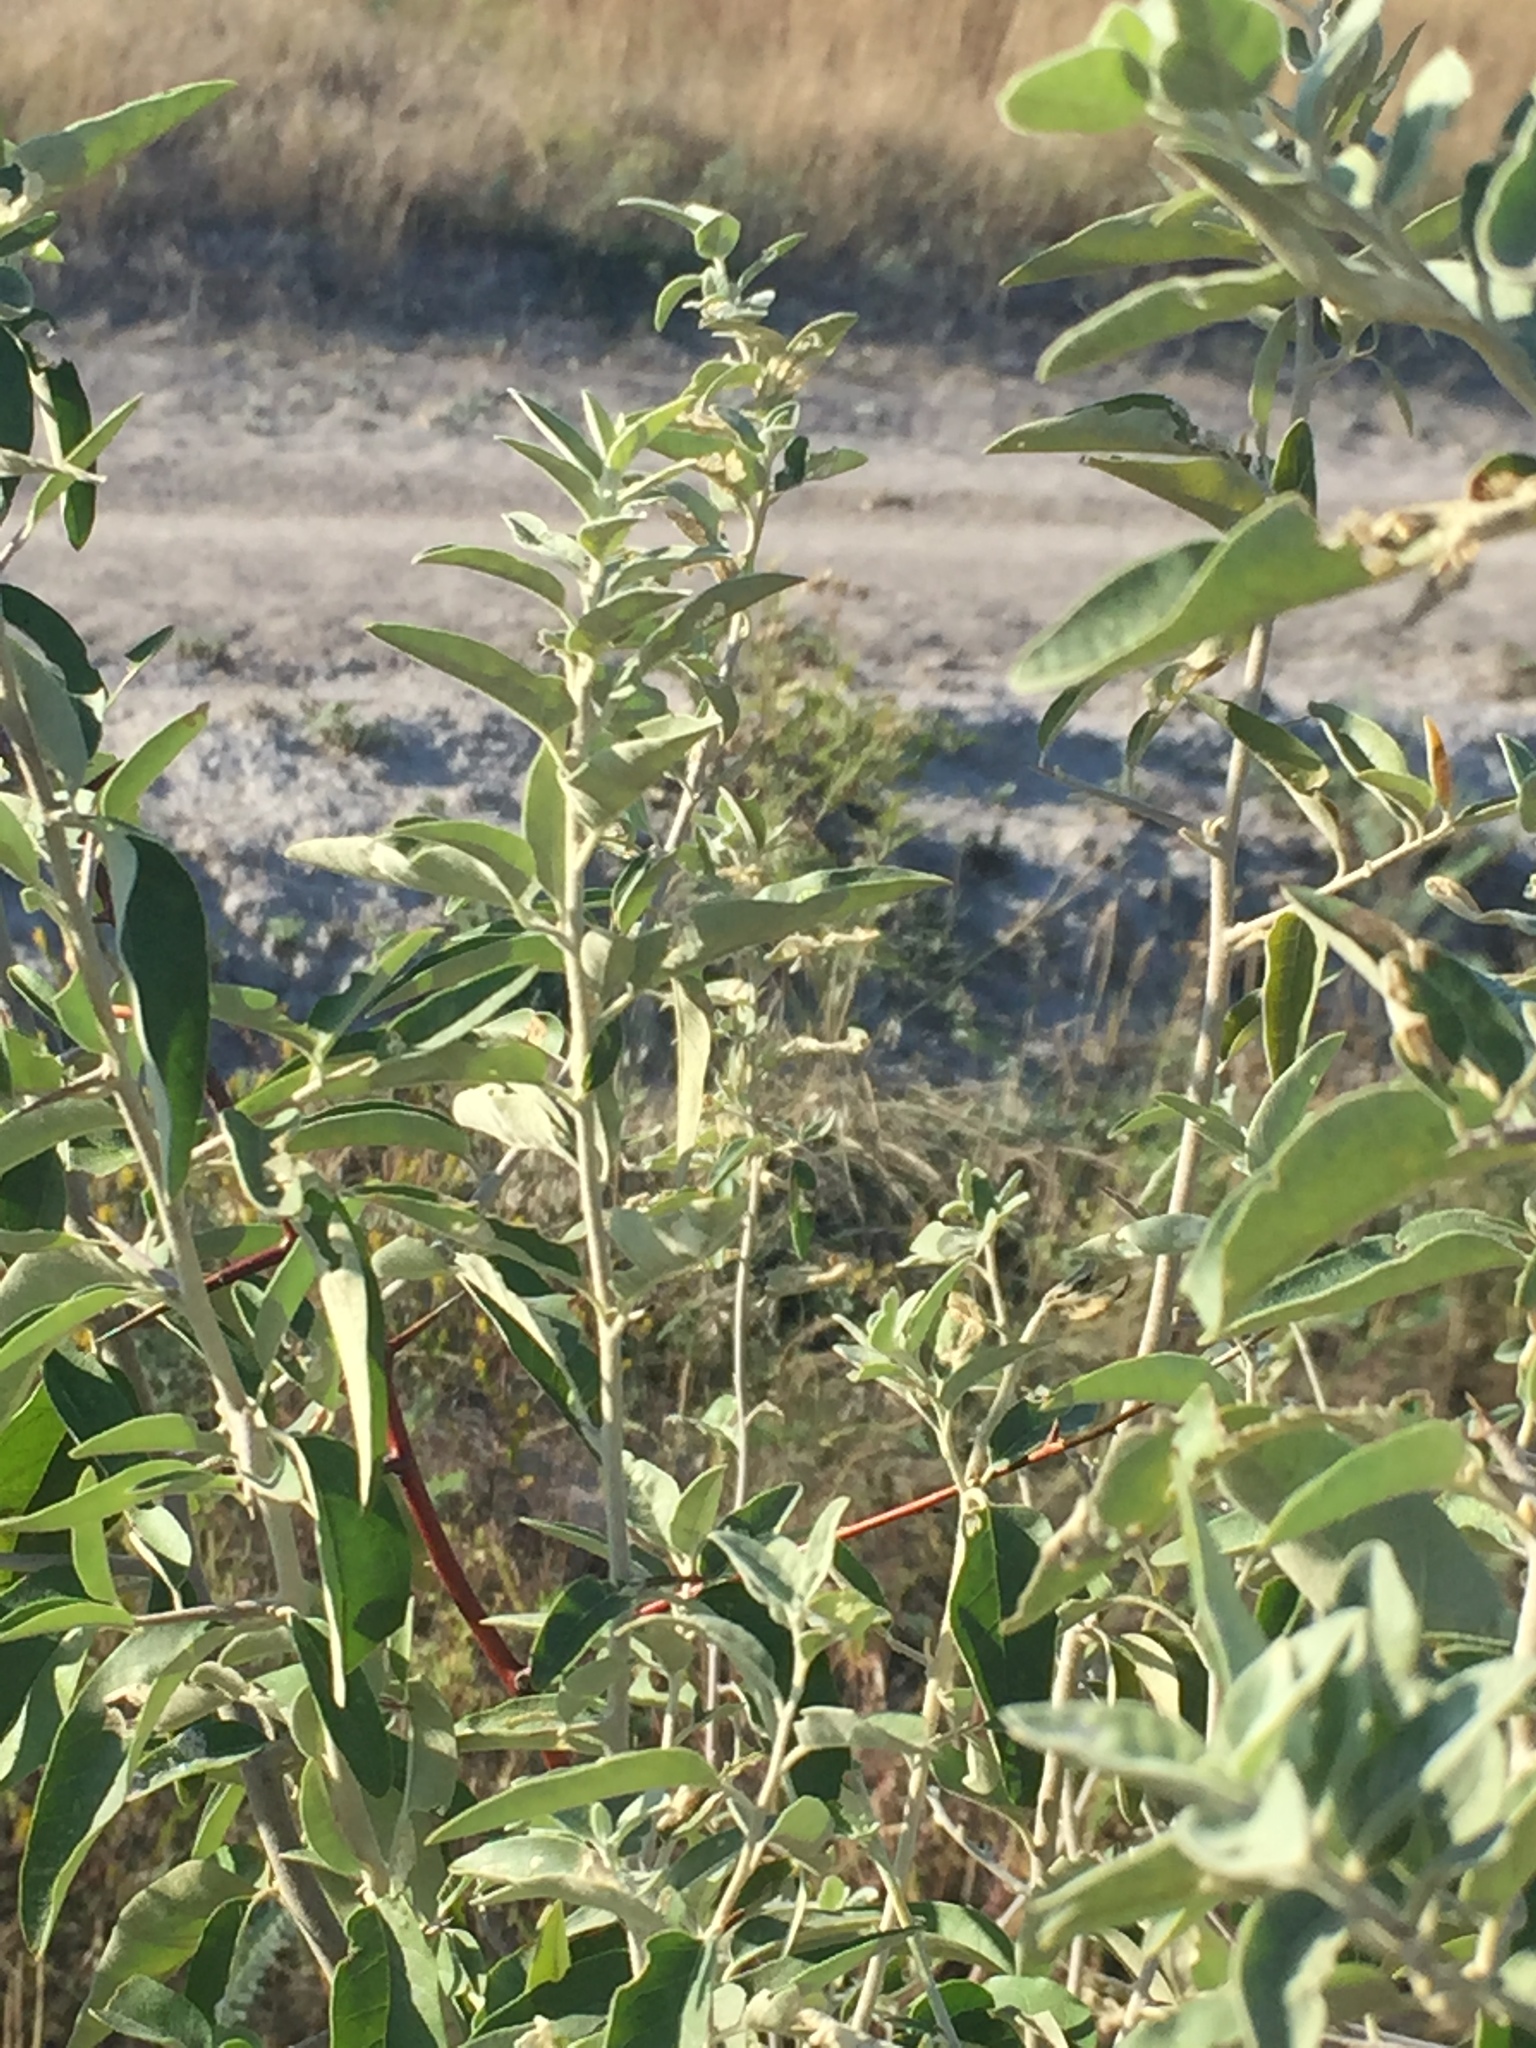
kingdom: Plantae
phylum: Tracheophyta
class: Magnoliopsida
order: Rosales
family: Elaeagnaceae
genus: Elaeagnus
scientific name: Elaeagnus angustifolia
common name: Russian olive
